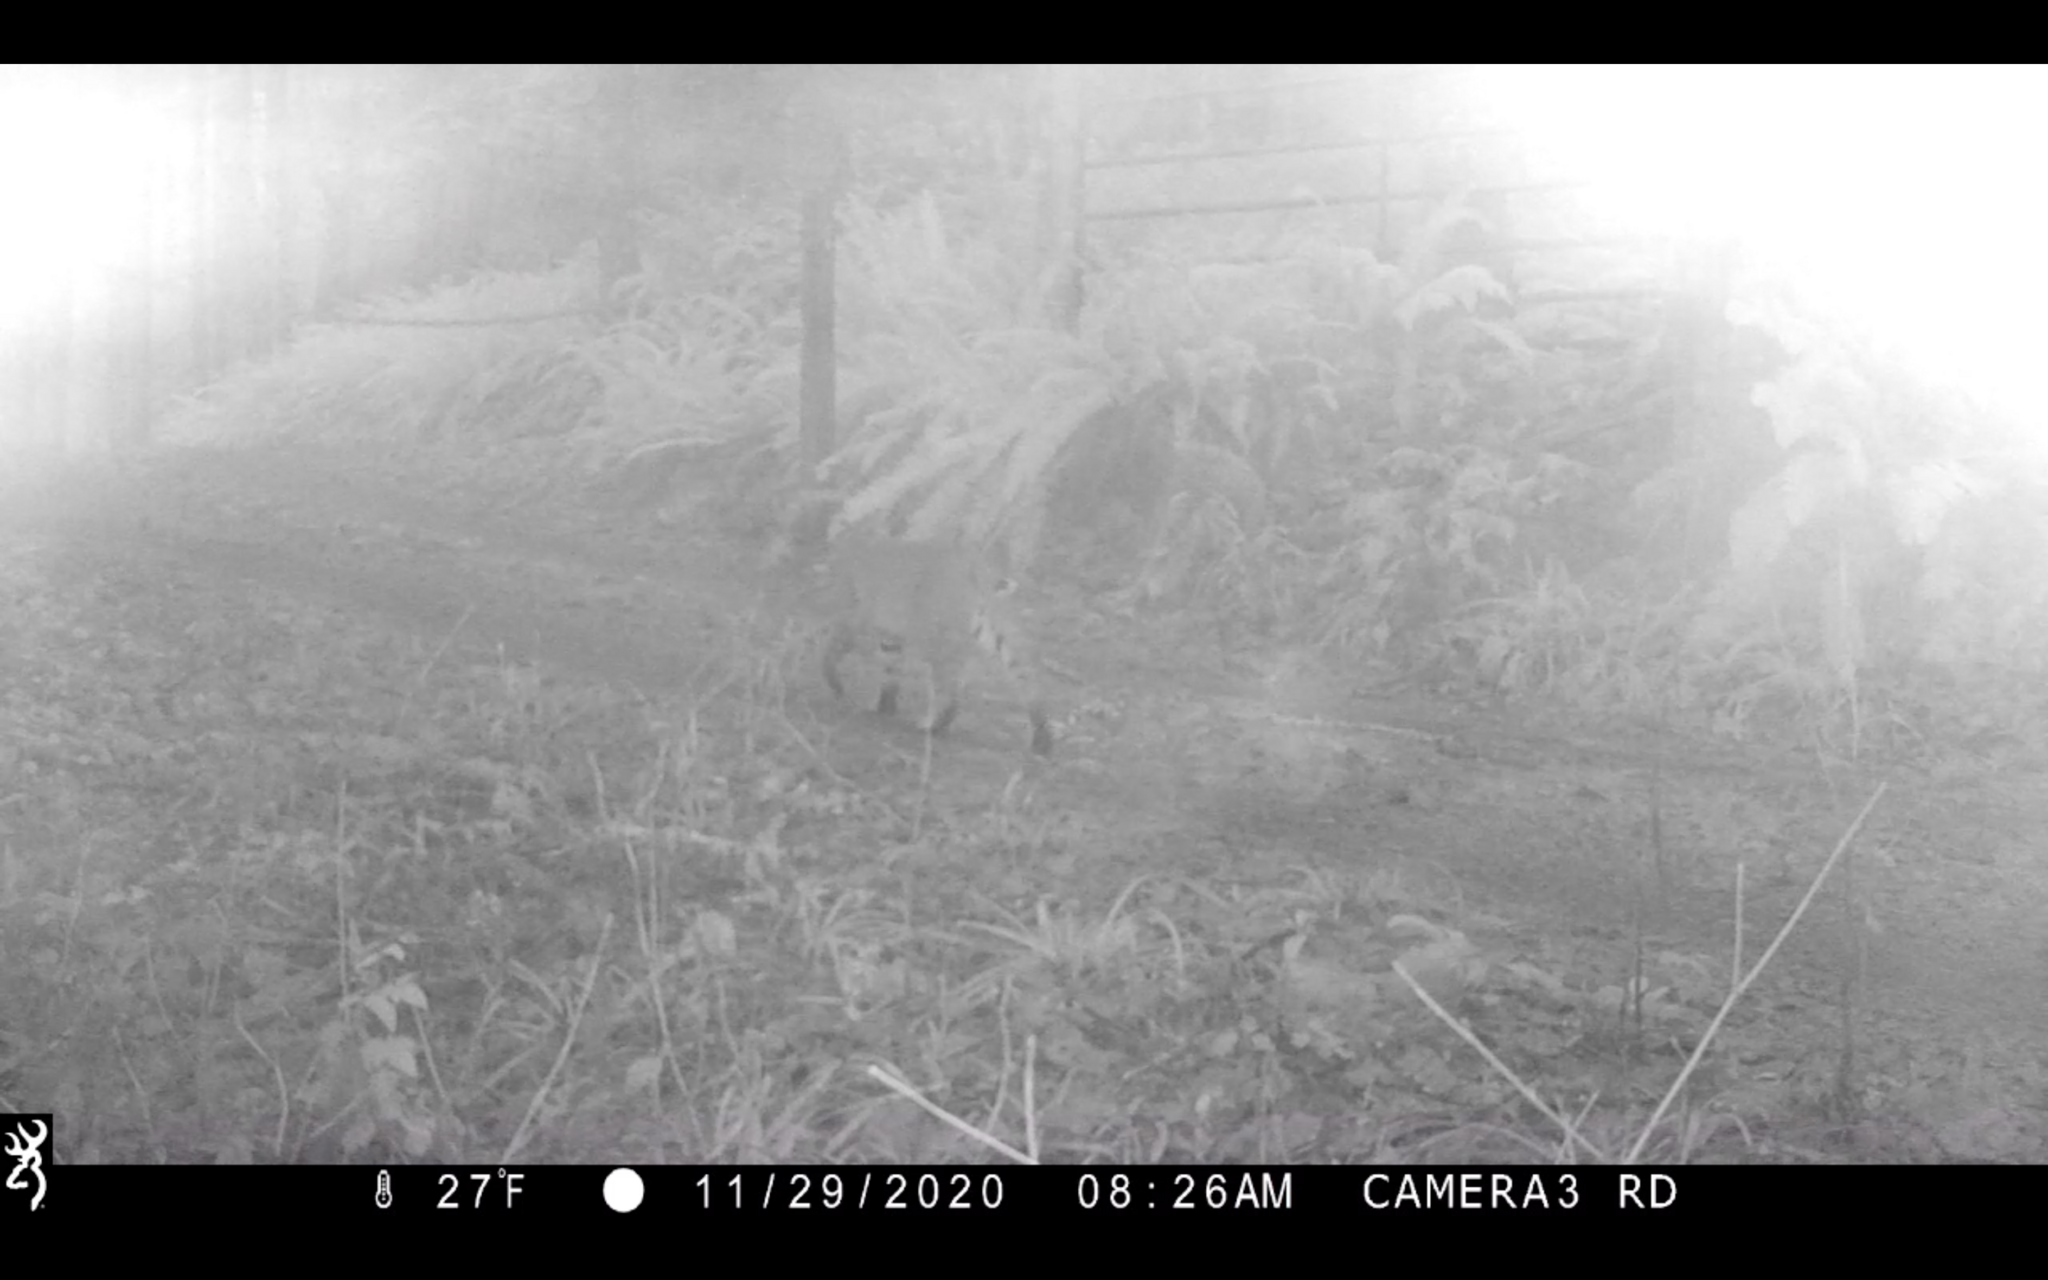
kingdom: Animalia
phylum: Chordata
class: Mammalia
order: Carnivora
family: Felidae
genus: Lynx
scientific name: Lynx rufus
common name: Bobcat
